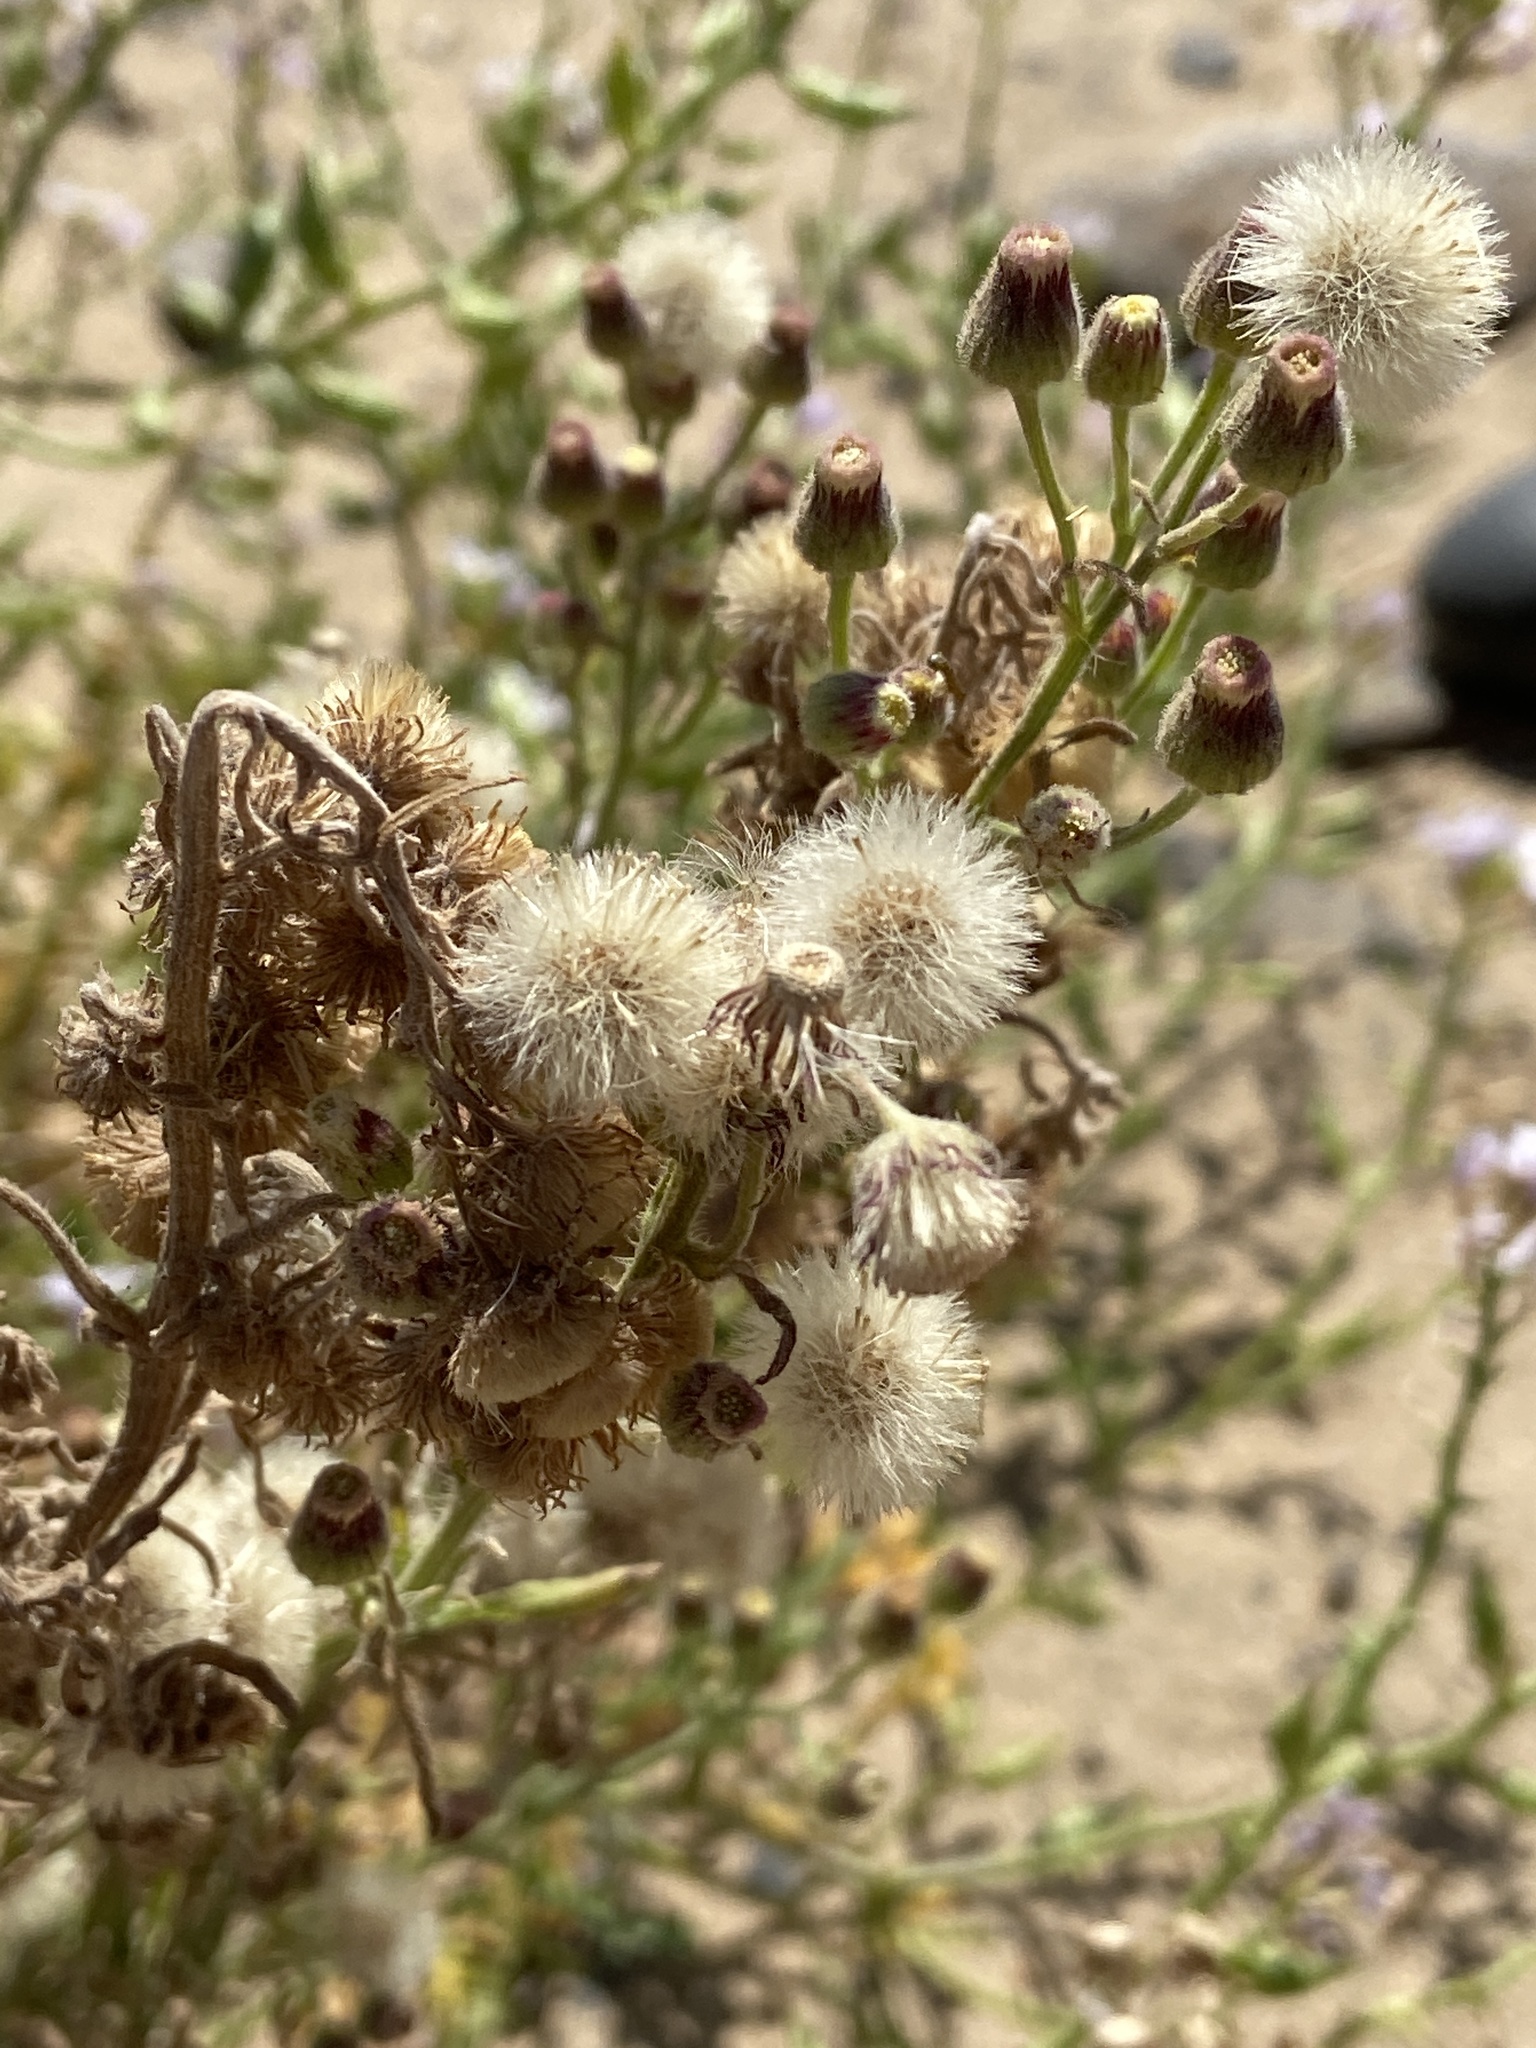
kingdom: Plantae
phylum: Tracheophyta
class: Magnoliopsida
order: Asterales
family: Asteraceae
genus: Erigeron
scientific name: Erigeron bonariensis
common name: Argentine fleabane
